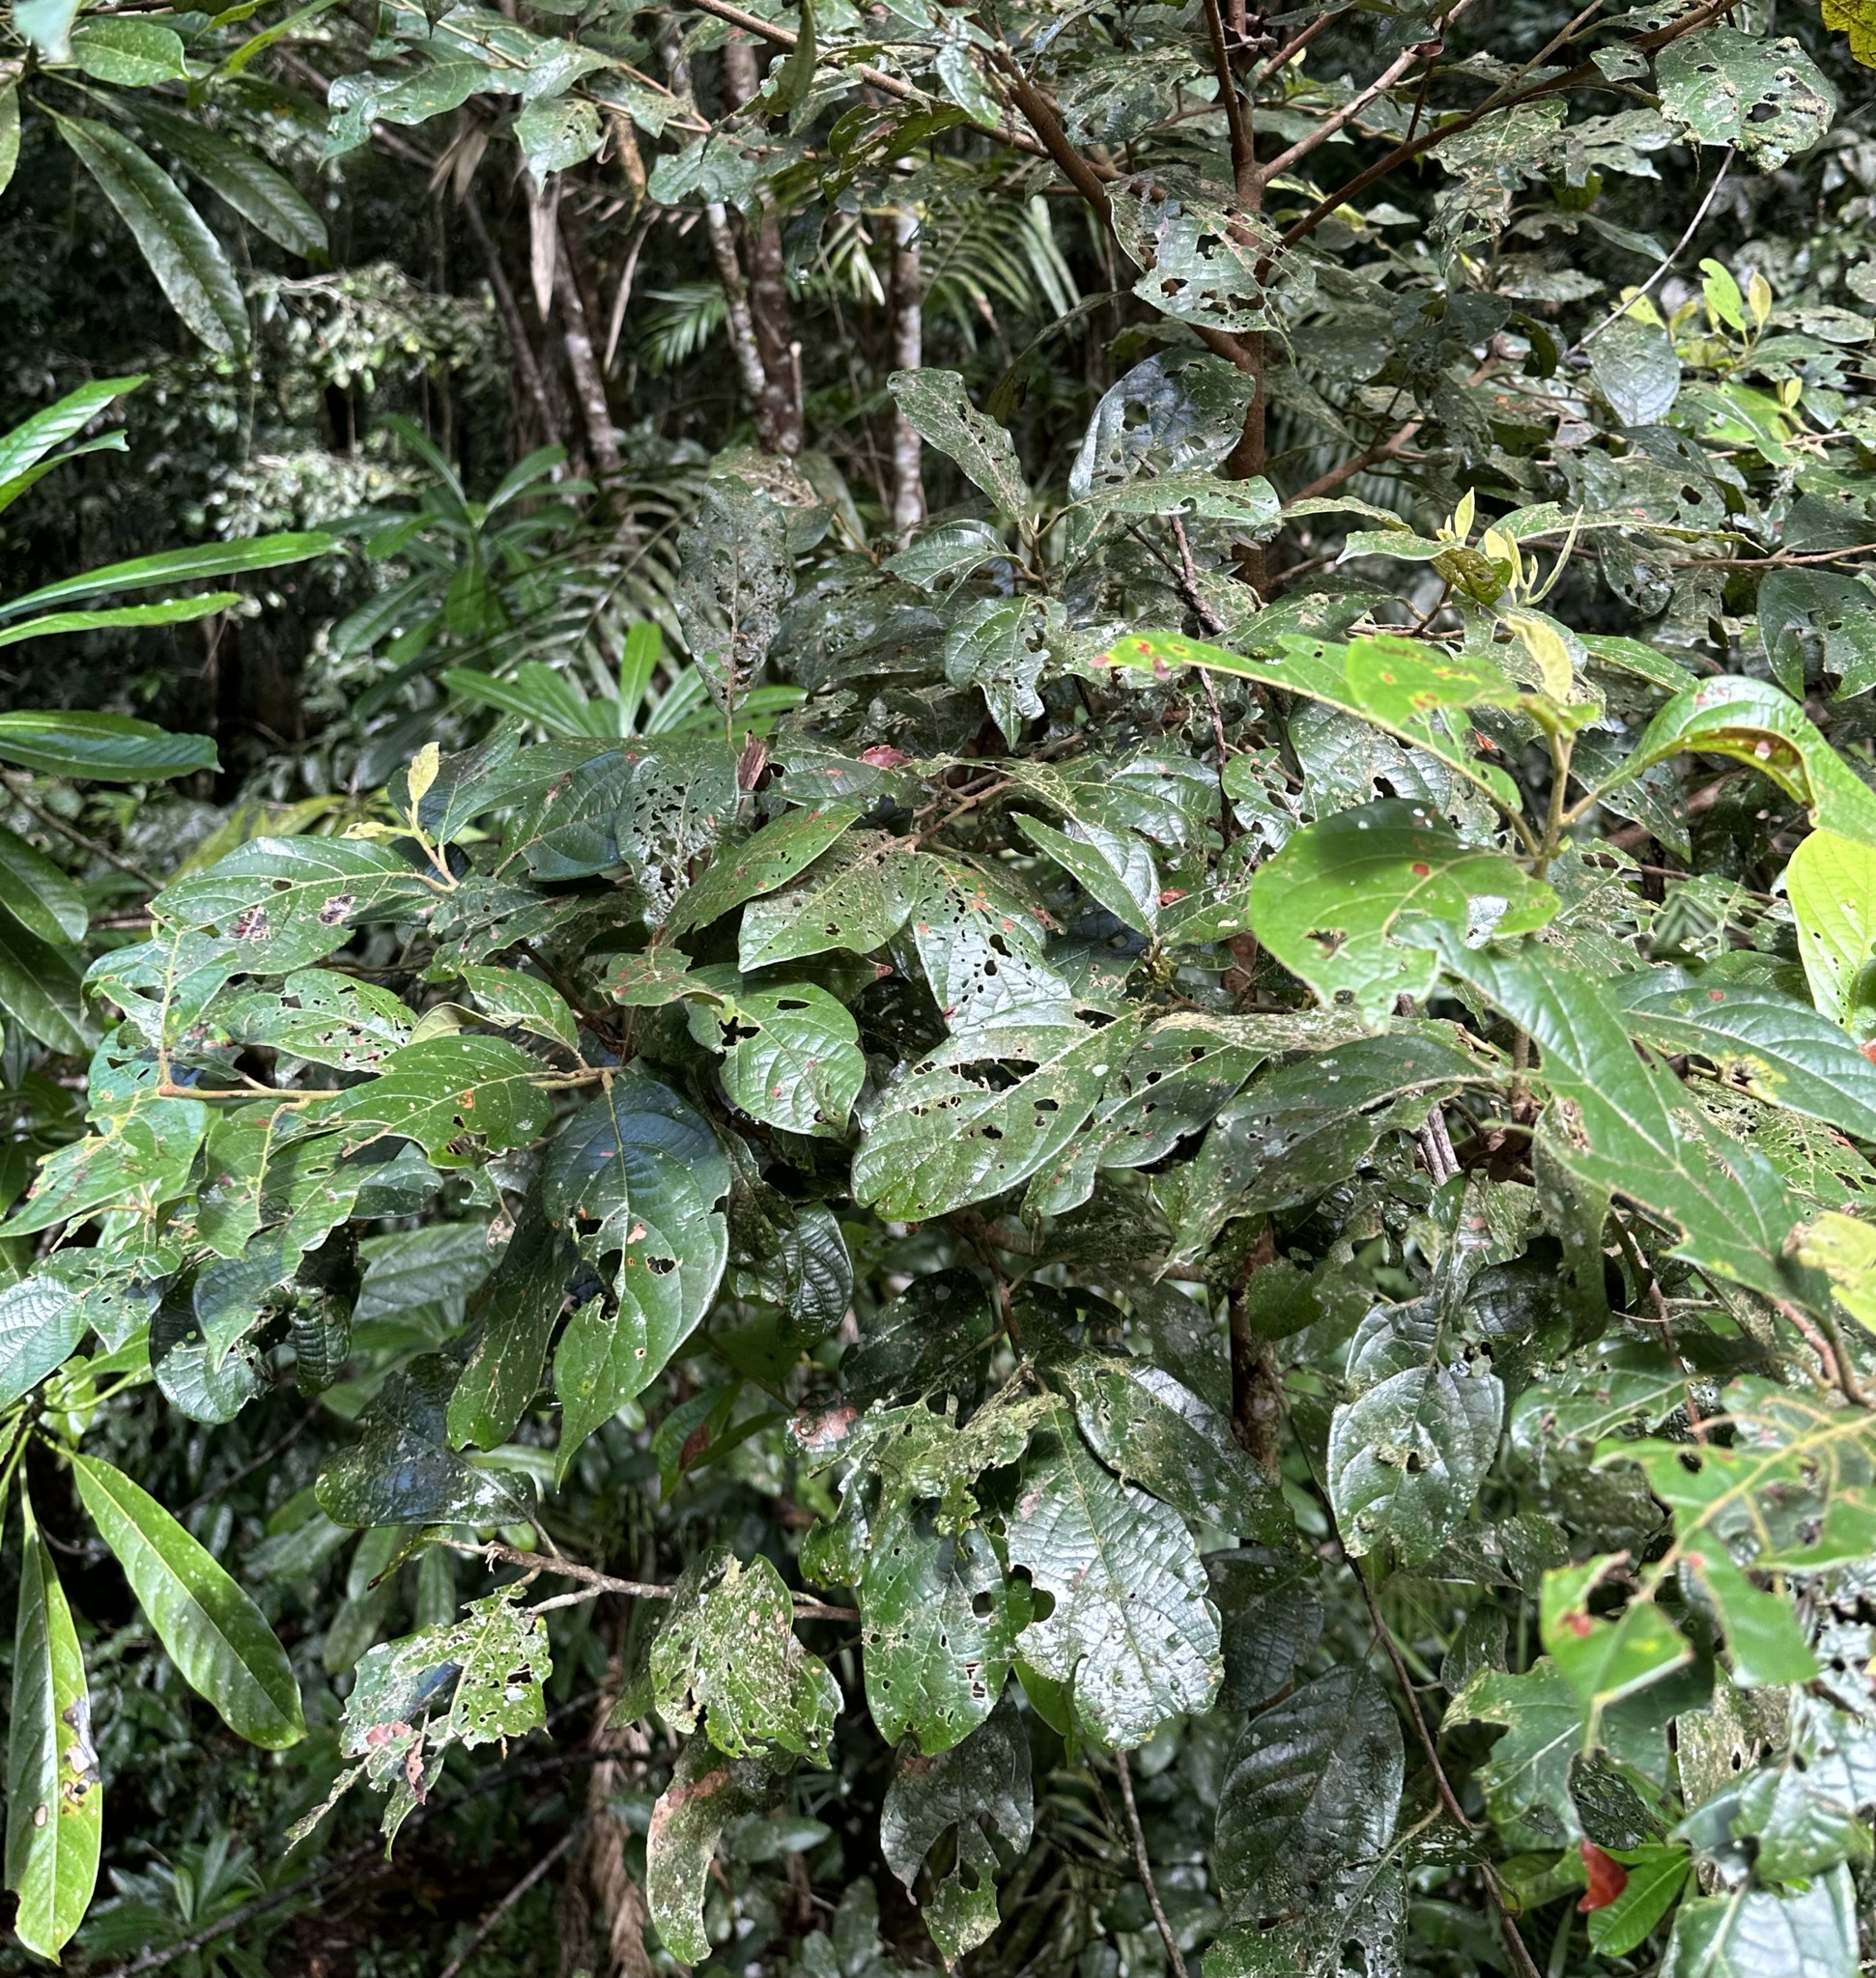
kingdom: Plantae
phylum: Tracheophyta
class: Magnoliopsida
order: Laurales
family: Lauraceae
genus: Litsea
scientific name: Litsea leefeana
